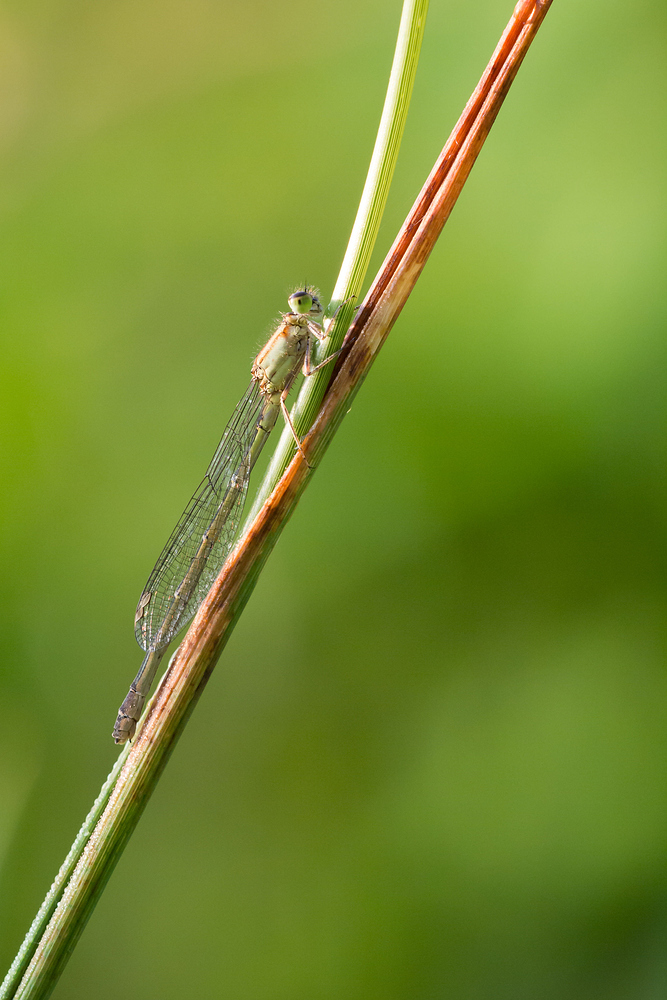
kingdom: Animalia
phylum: Arthropoda
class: Insecta
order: Odonata
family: Coenagrionidae
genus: Ischnura
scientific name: Ischnura elegans
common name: Blue-tailed damselfly
